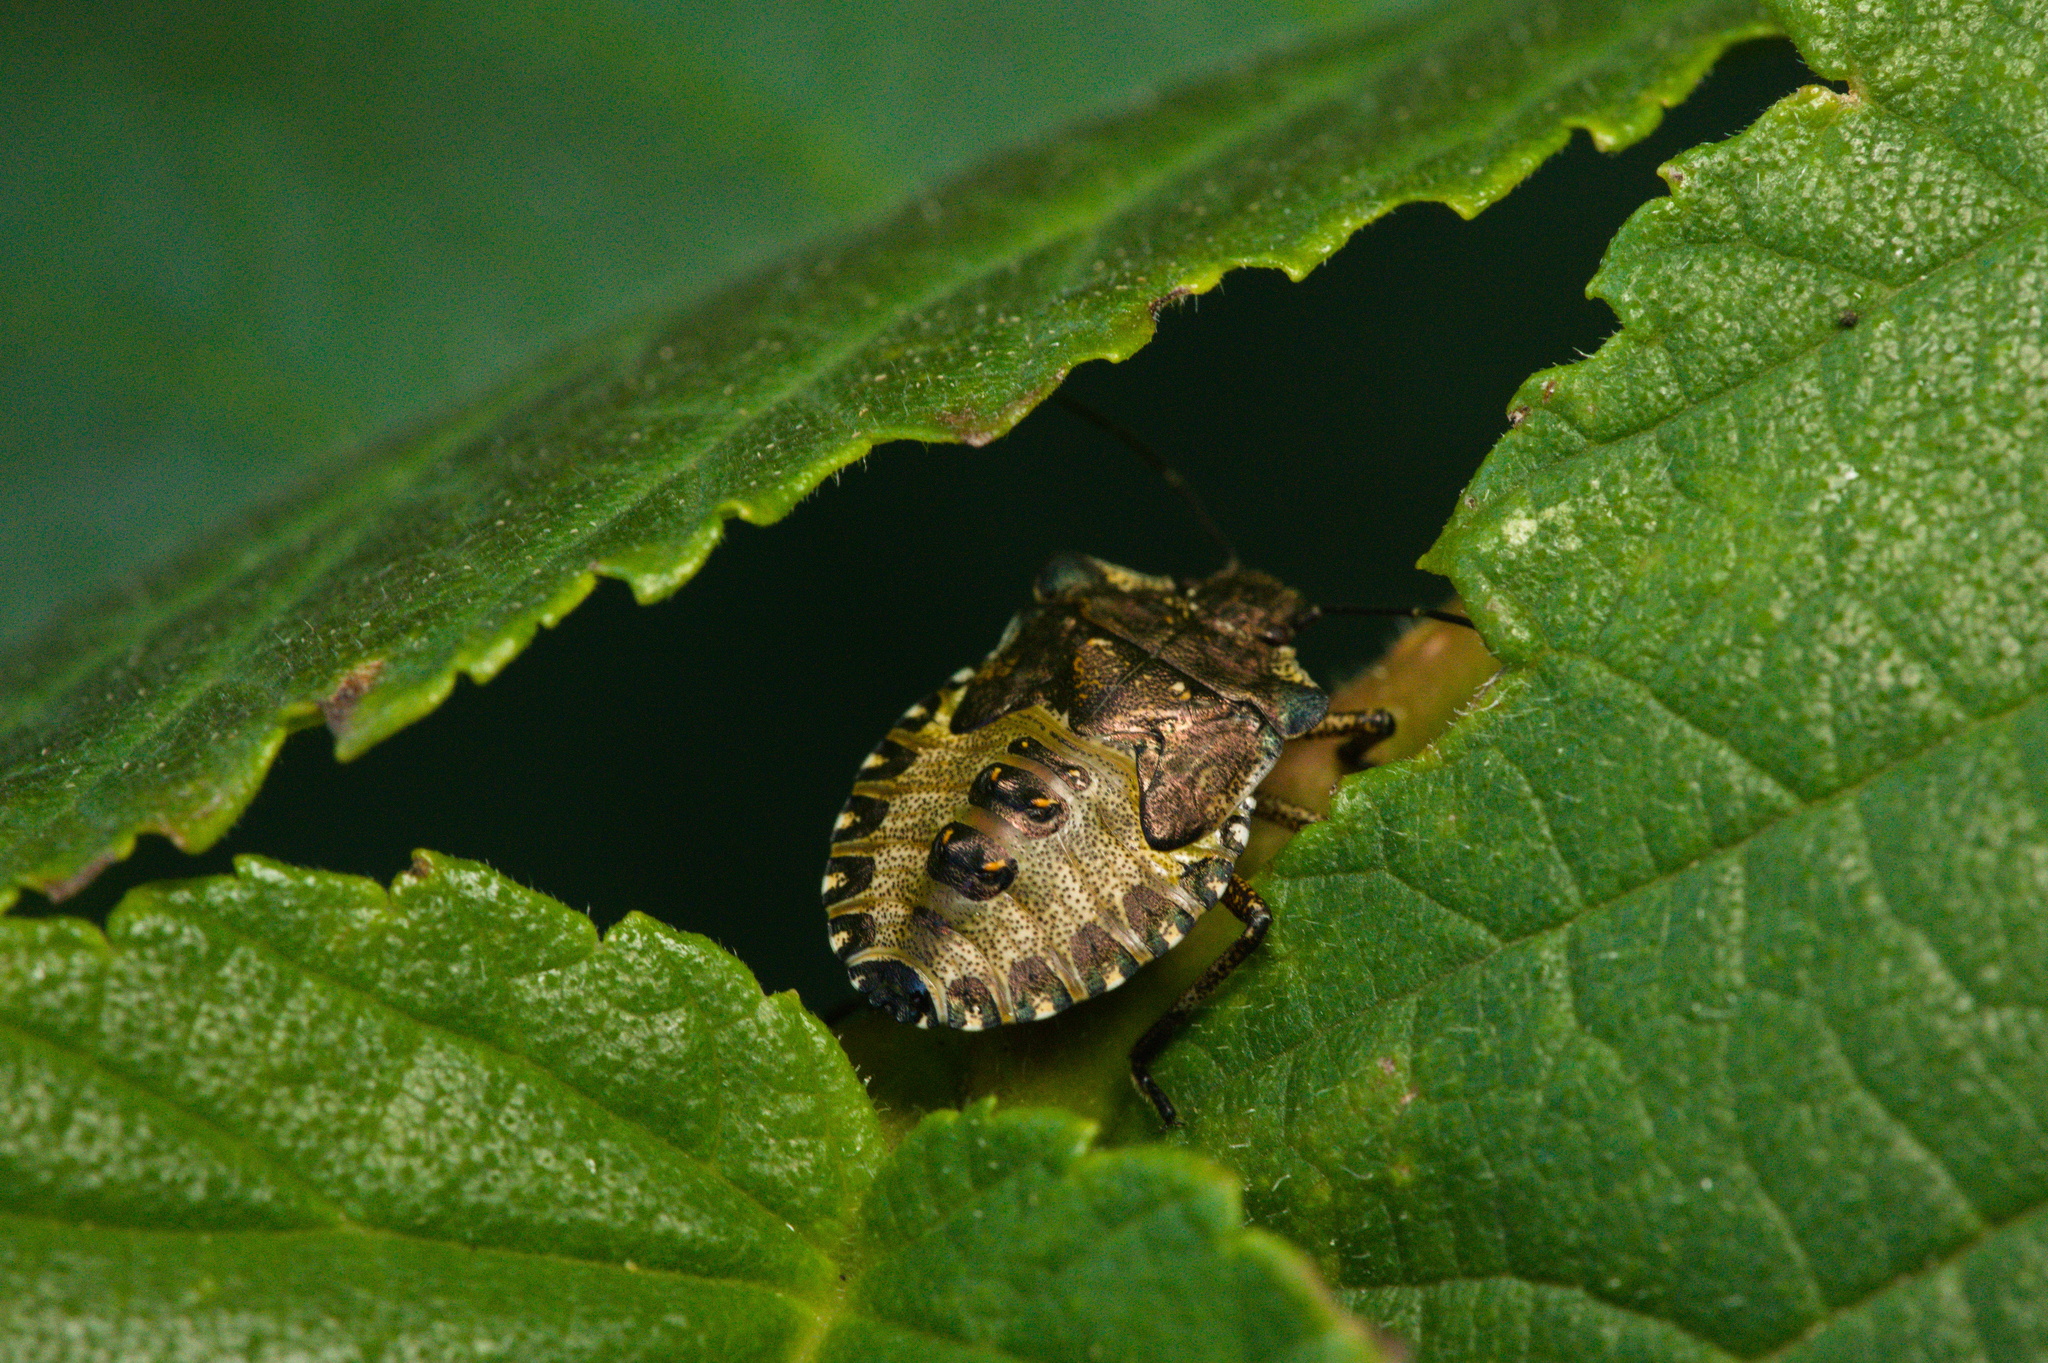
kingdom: Animalia
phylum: Arthropoda
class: Insecta
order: Hemiptera
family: Pentatomidae
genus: Pentatoma
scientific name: Pentatoma rufipes
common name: Forest bug
